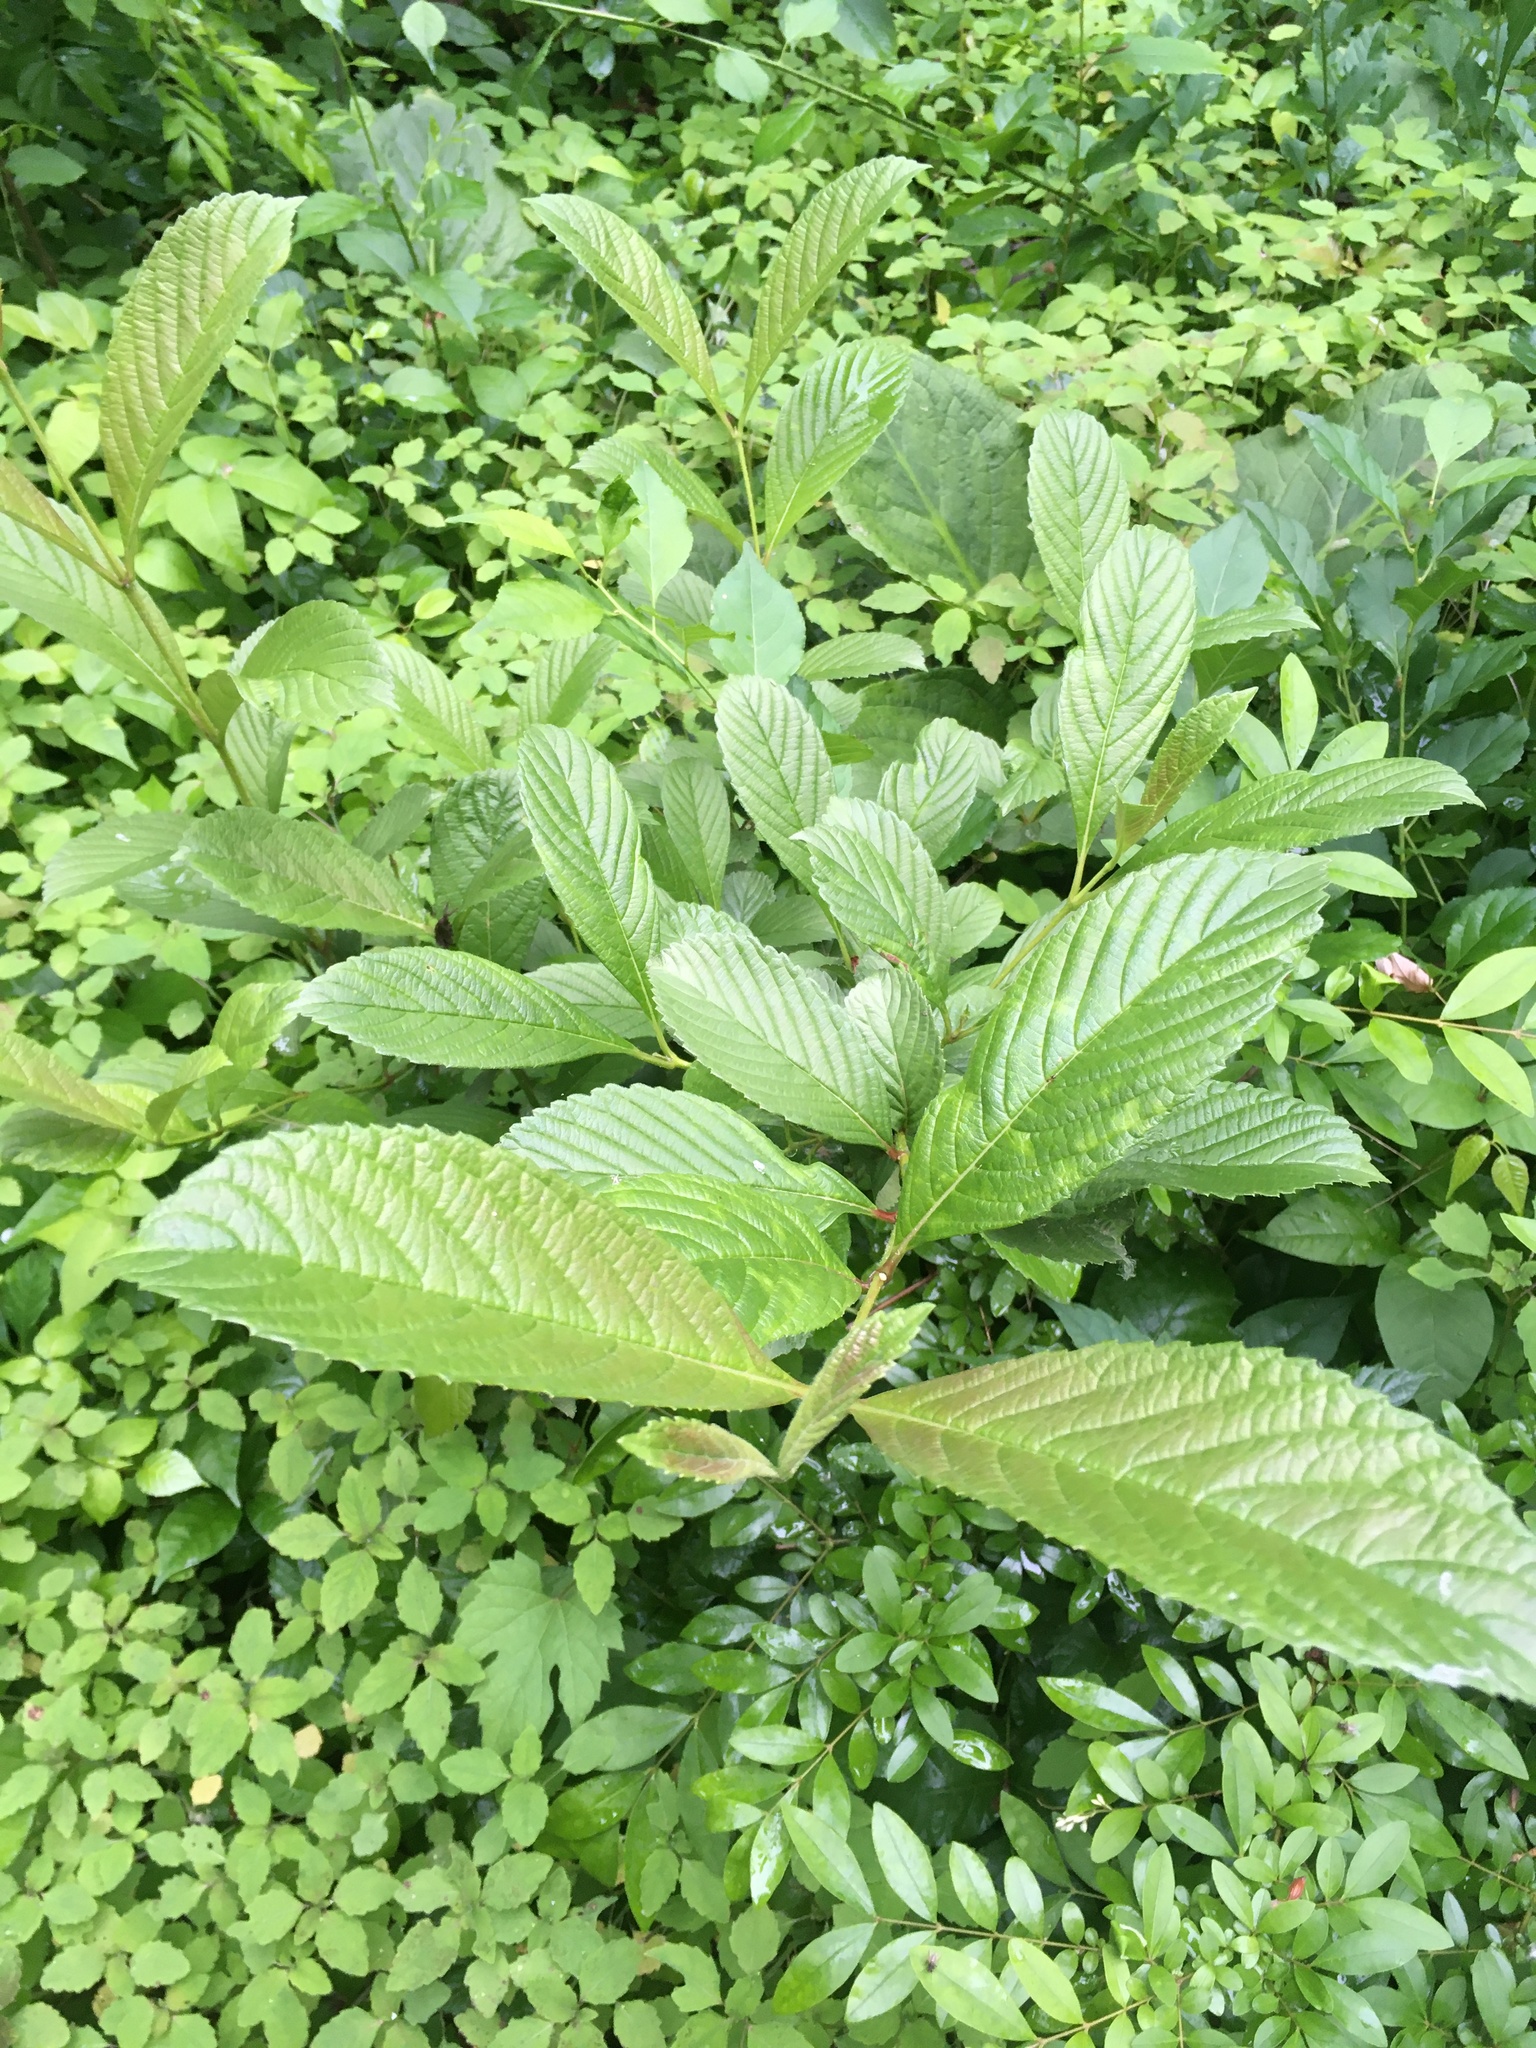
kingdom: Plantae
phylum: Tracheophyta
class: Magnoliopsida
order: Dipsacales
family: Viburnaceae
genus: Viburnum
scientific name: Viburnum sieboldii
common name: Siebold's arrowwood
